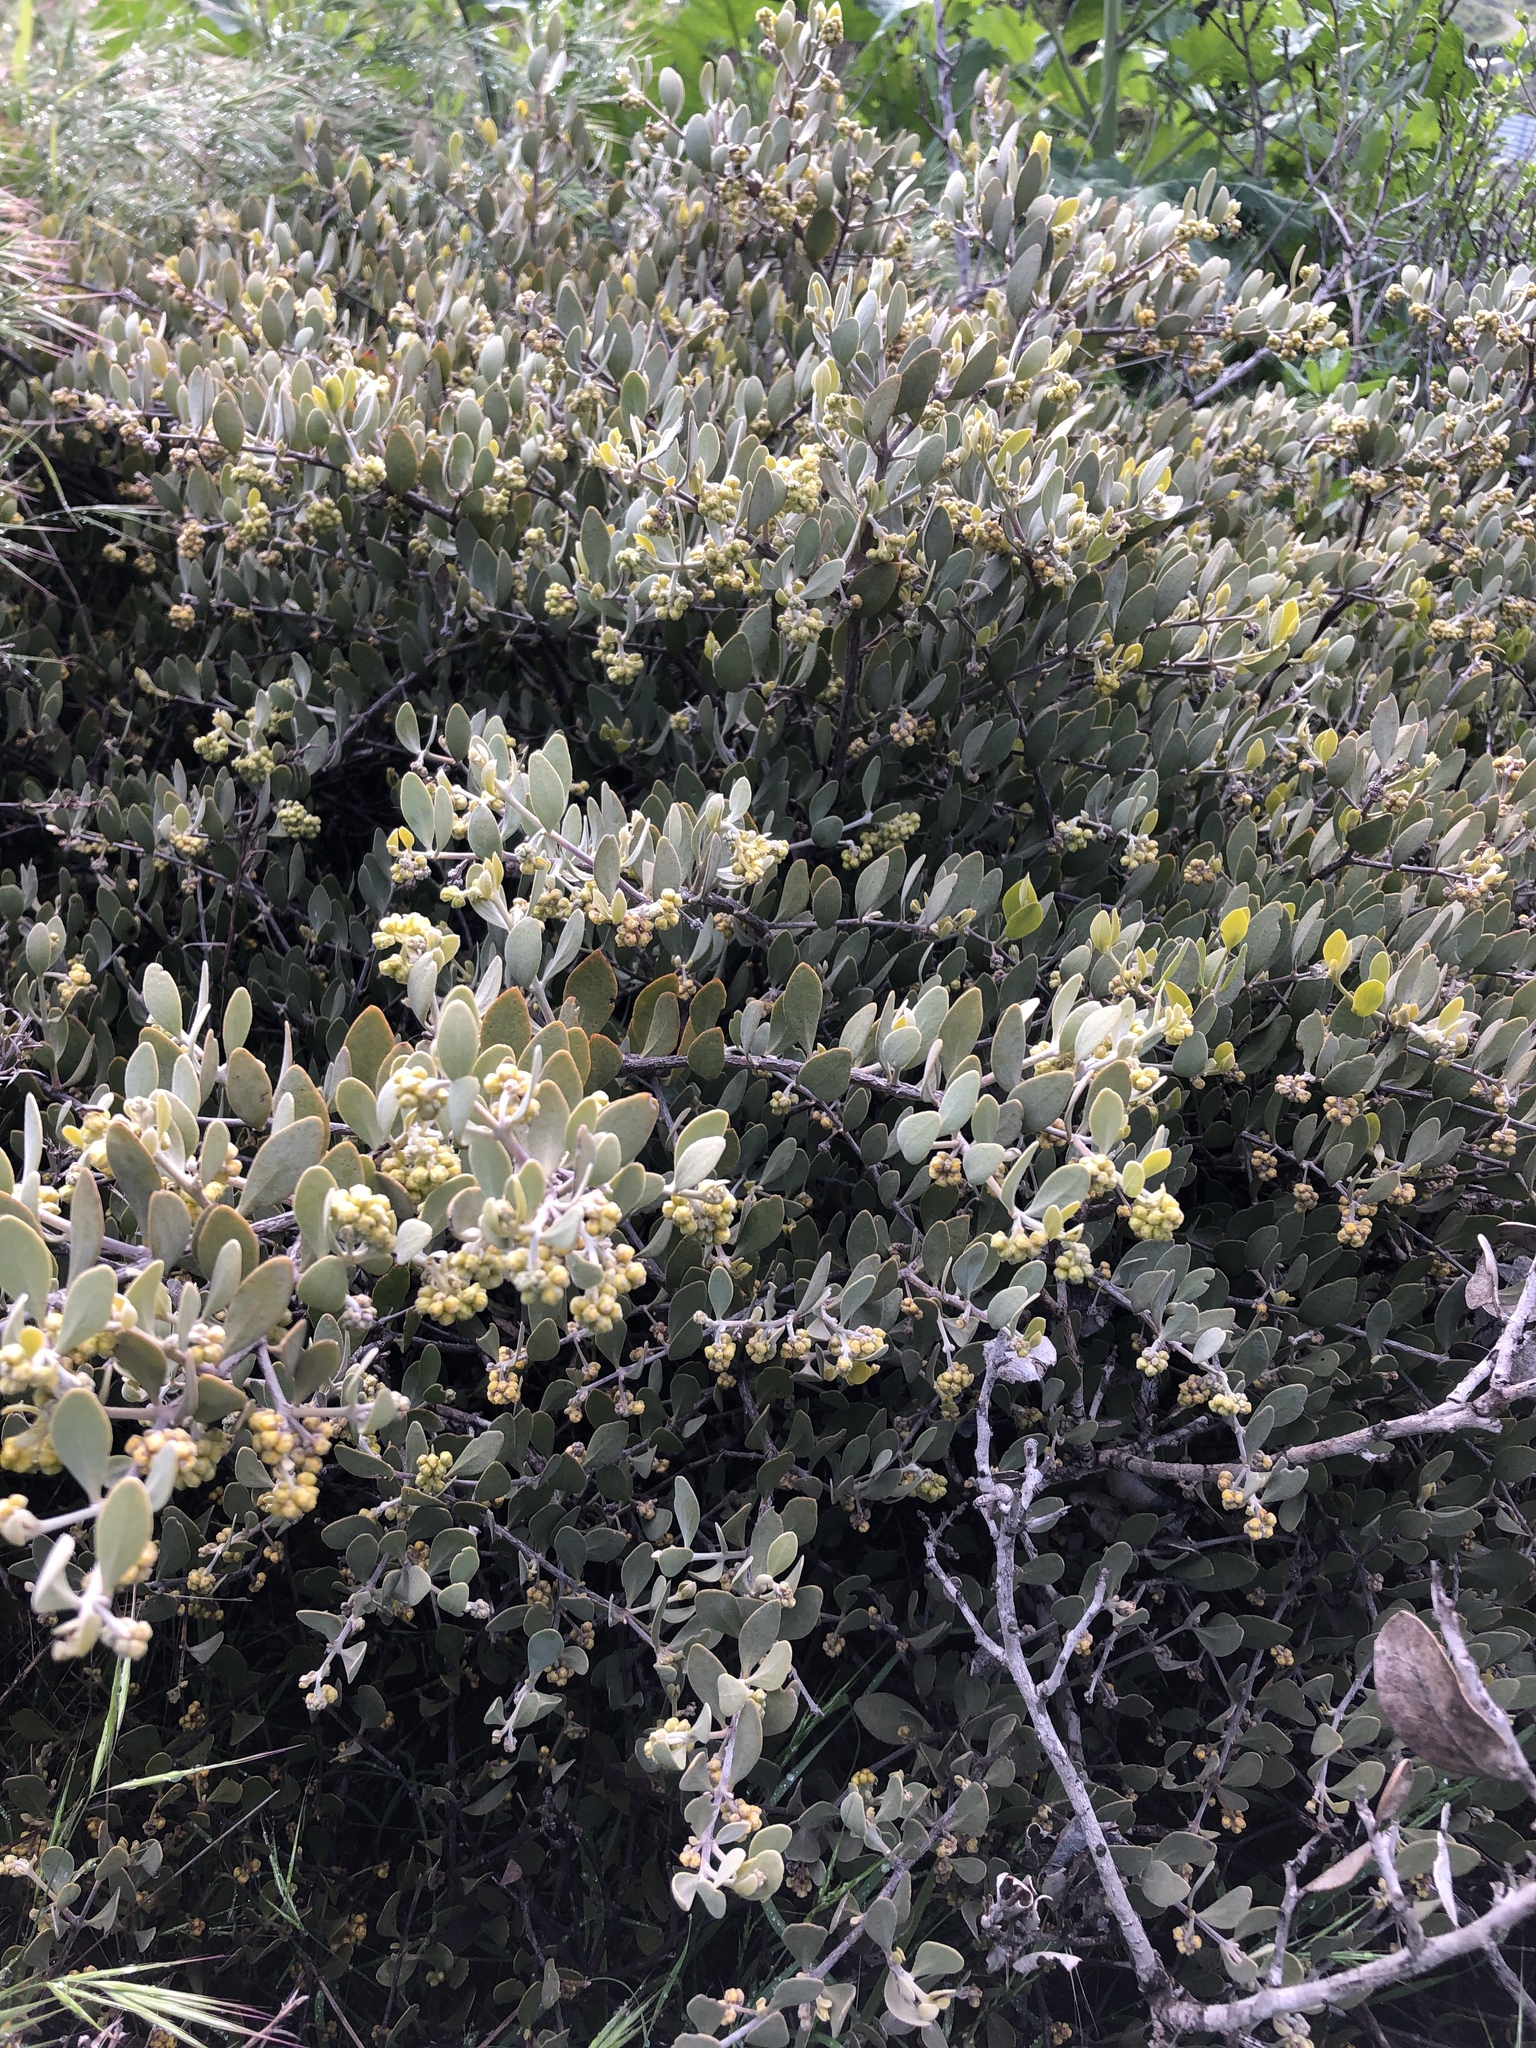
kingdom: Plantae
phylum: Tracheophyta
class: Magnoliopsida
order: Caryophyllales
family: Simmondsiaceae
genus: Simmondsia
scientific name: Simmondsia chinensis
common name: Jojoba
